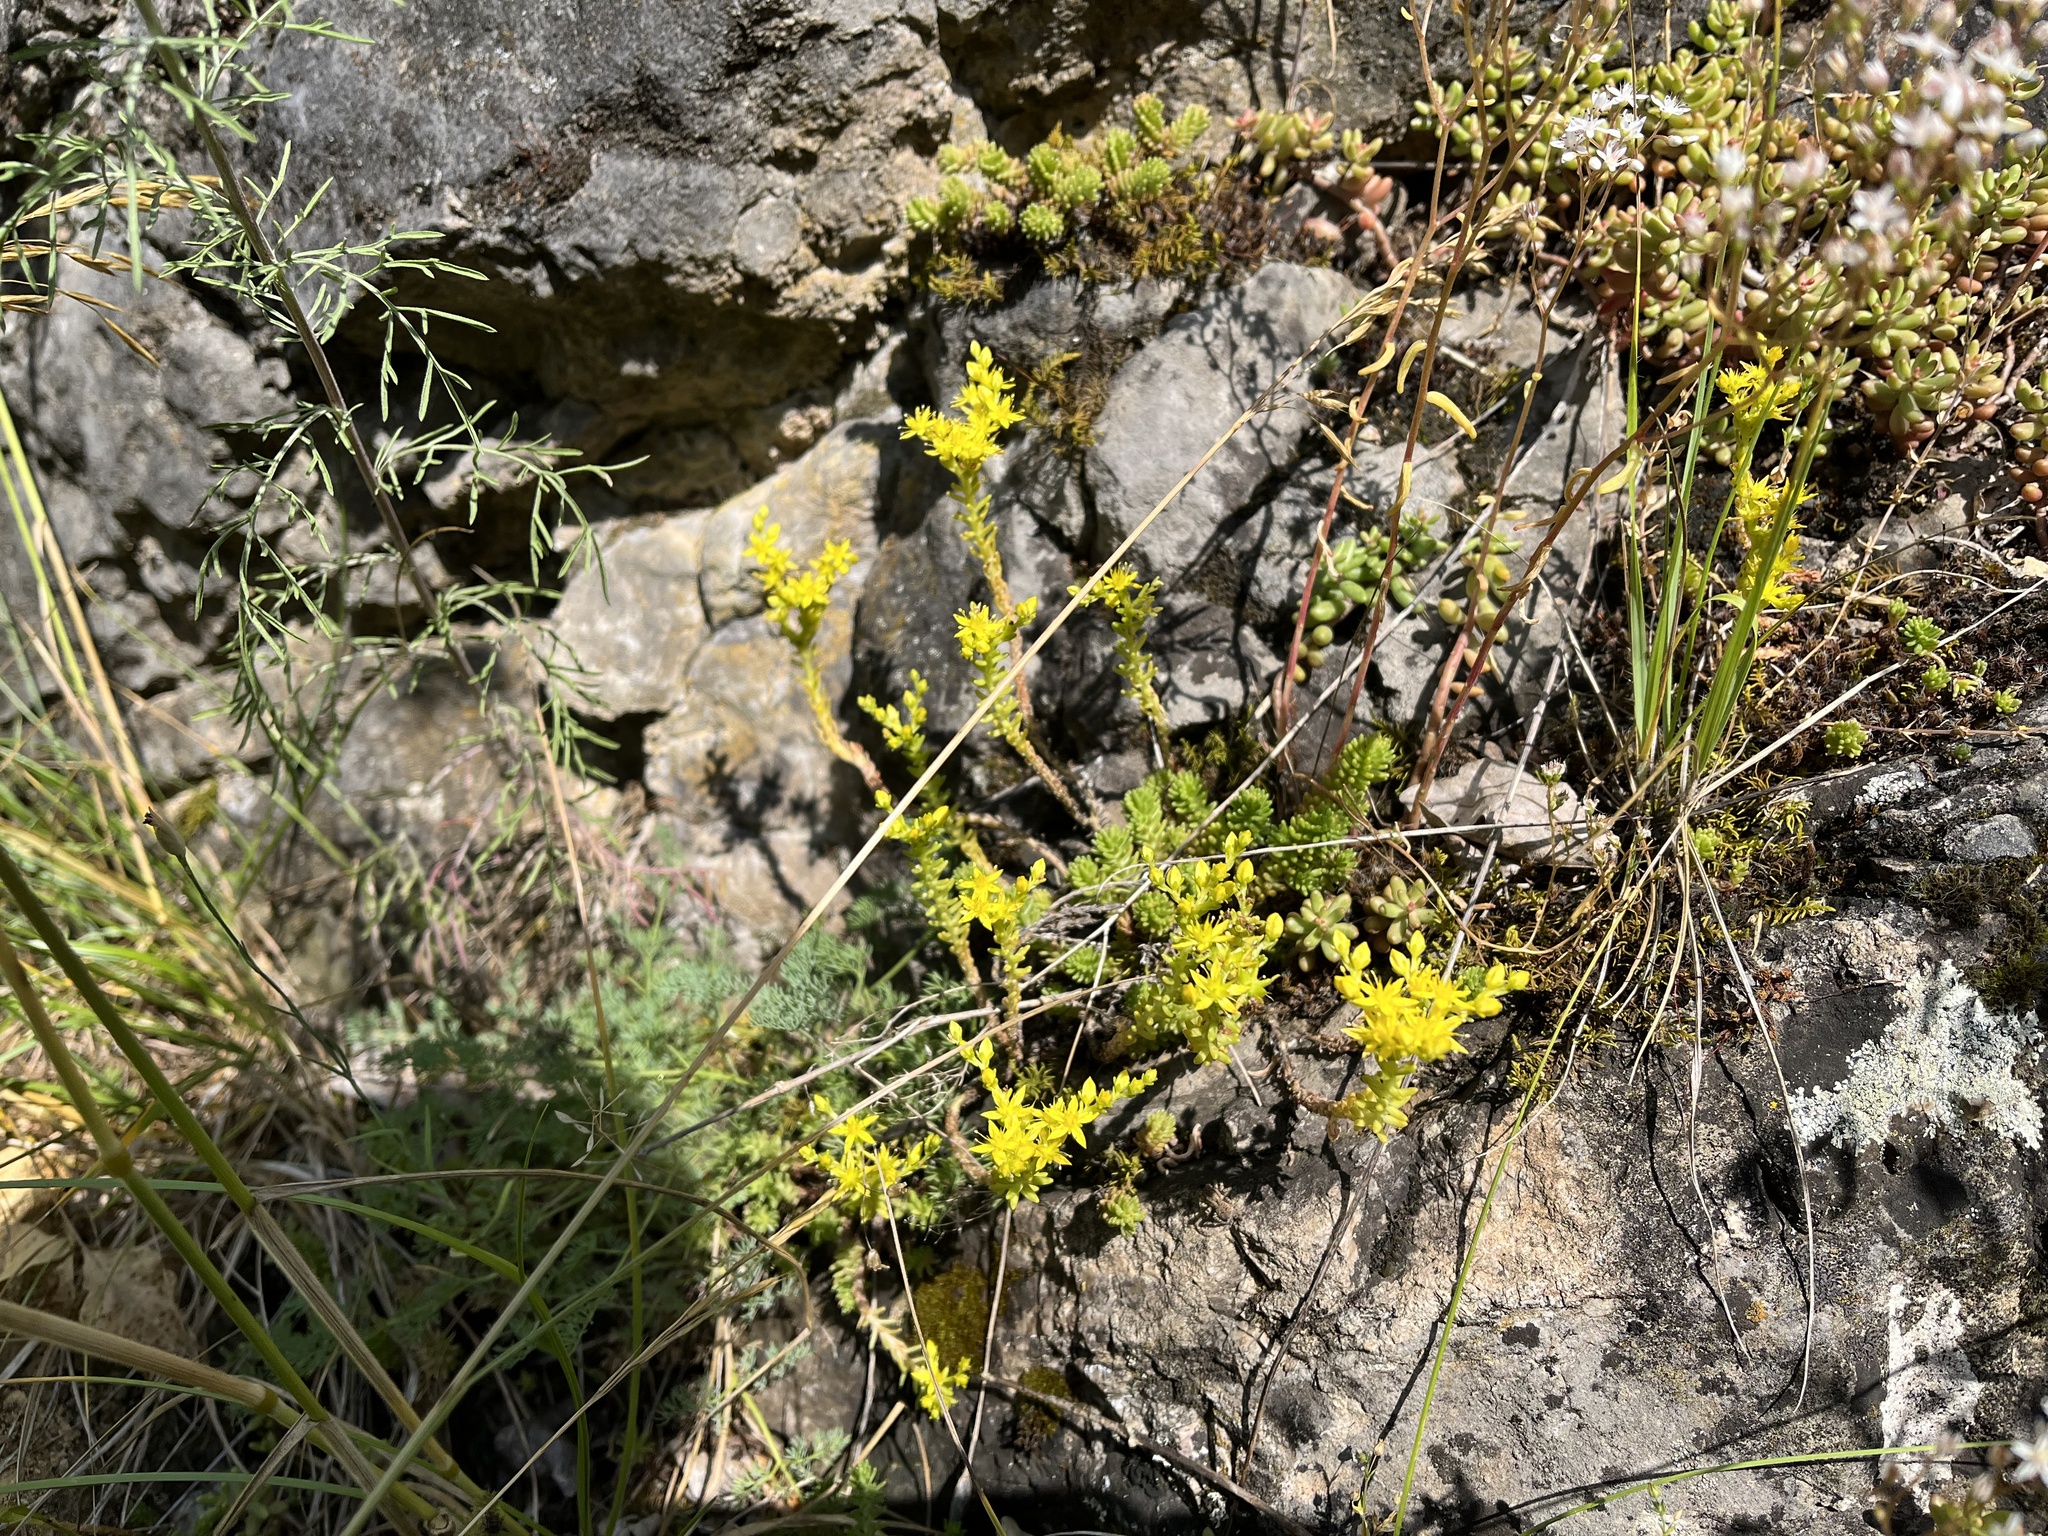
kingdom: Plantae
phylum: Tracheophyta
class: Magnoliopsida
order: Saxifragales
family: Crassulaceae
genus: Sedum
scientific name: Sedum sexangulare
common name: Tasteless stonecrop
